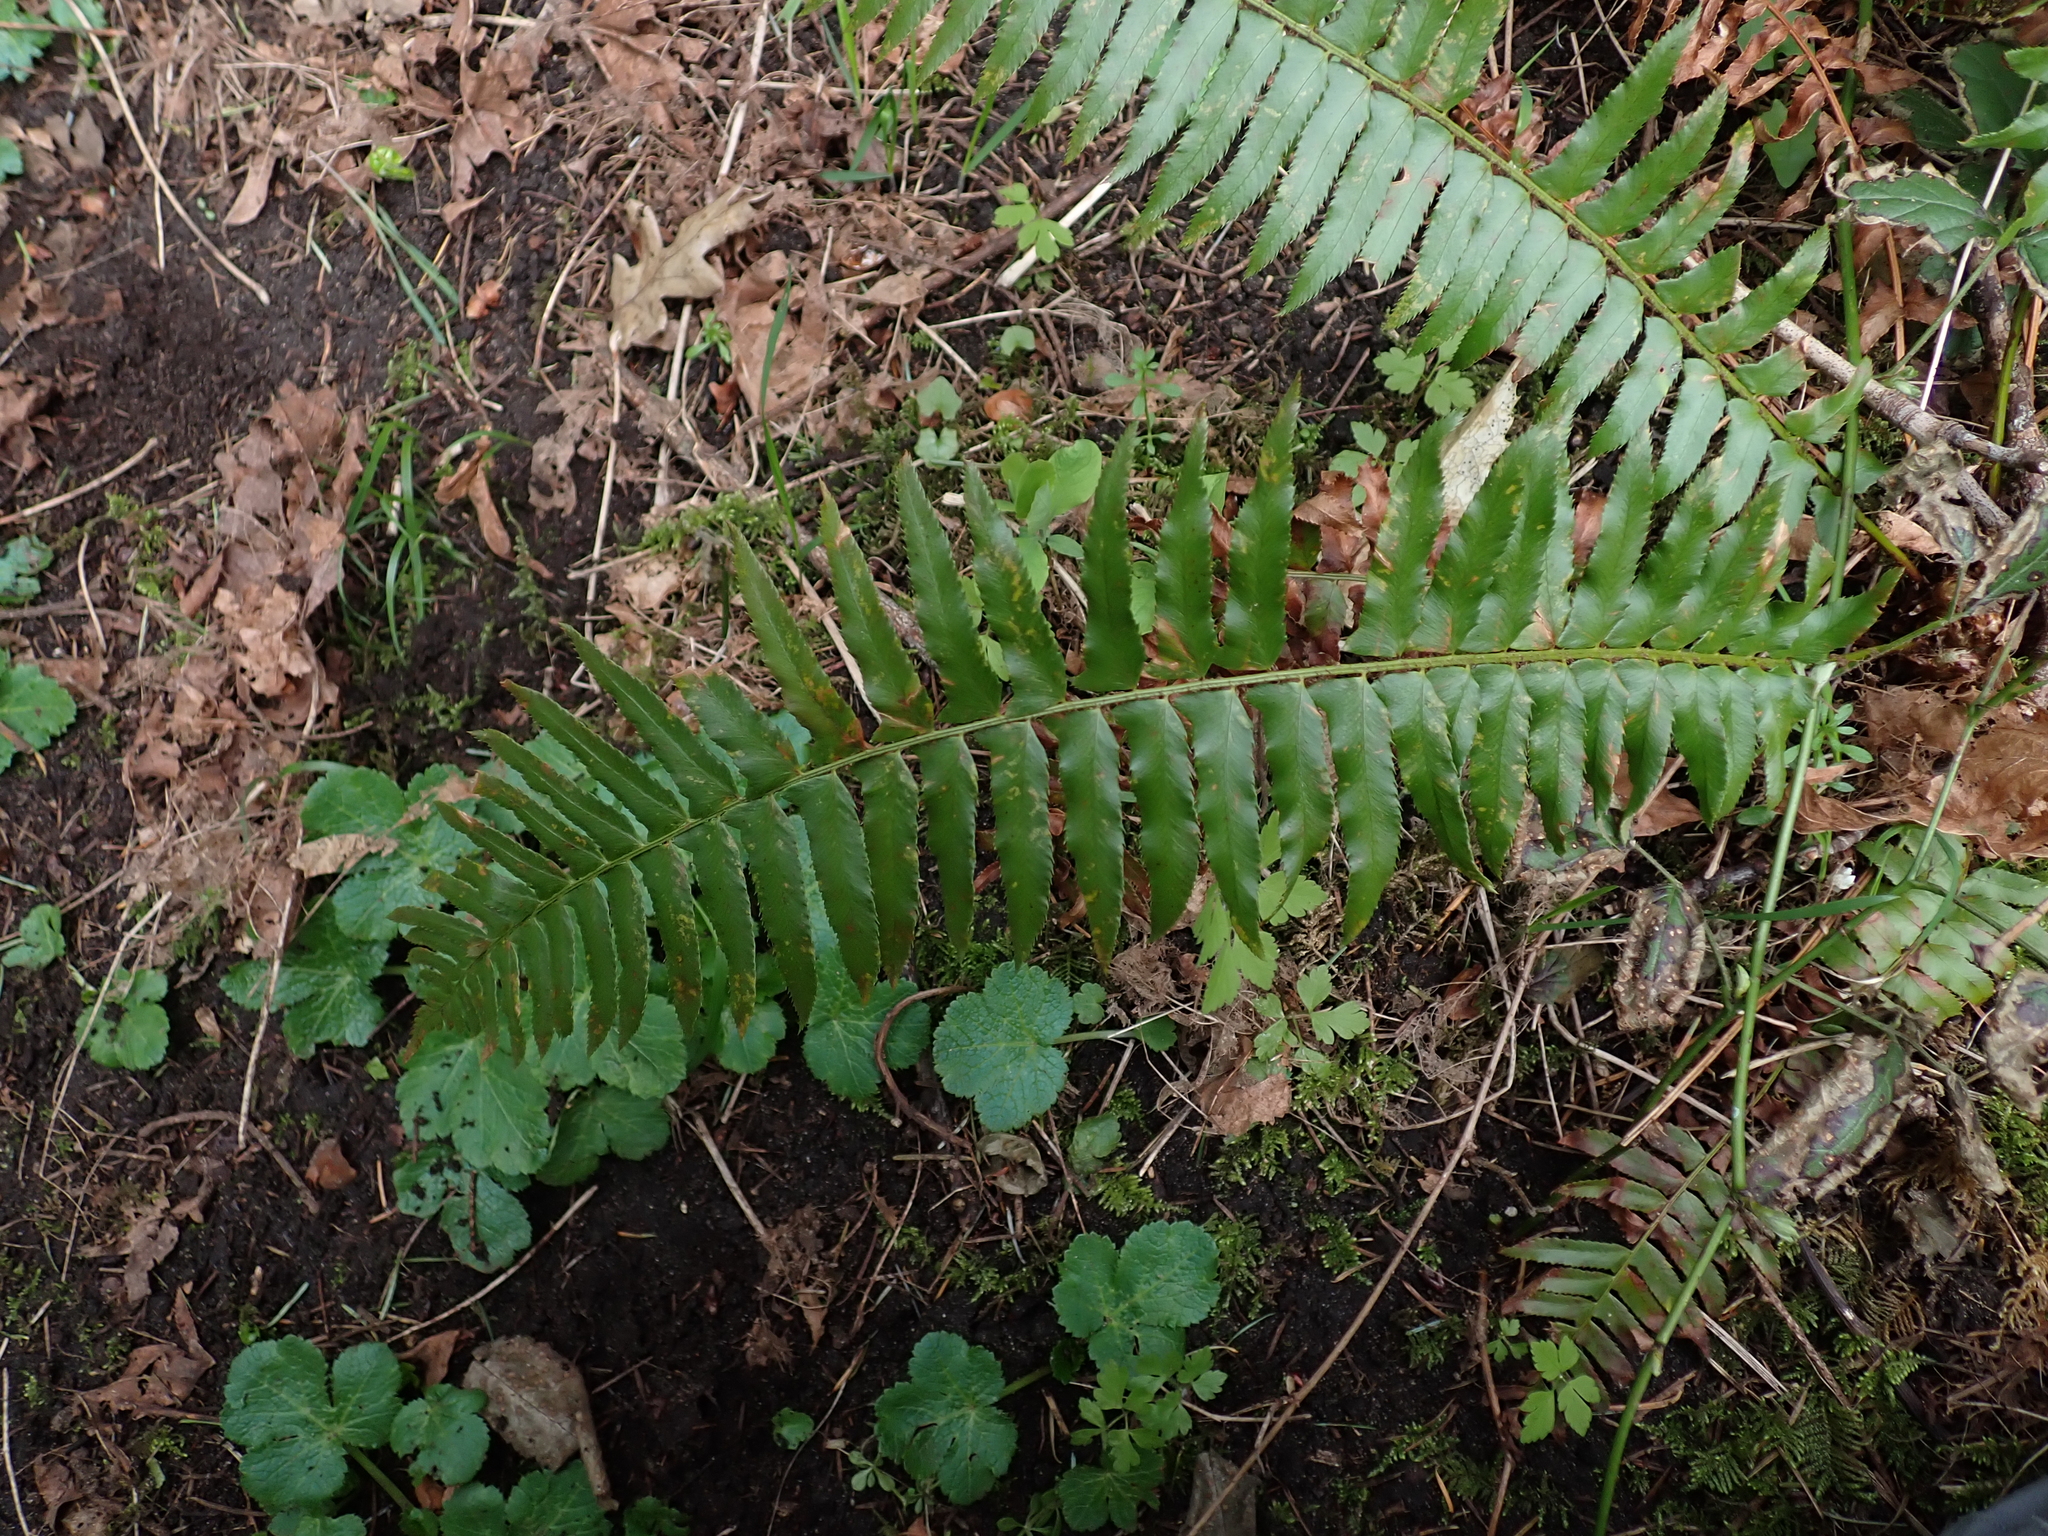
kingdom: Plantae
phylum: Tracheophyta
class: Polypodiopsida
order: Polypodiales
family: Dryopteridaceae
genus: Polystichum
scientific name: Polystichum munitum
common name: Western sword-fern
